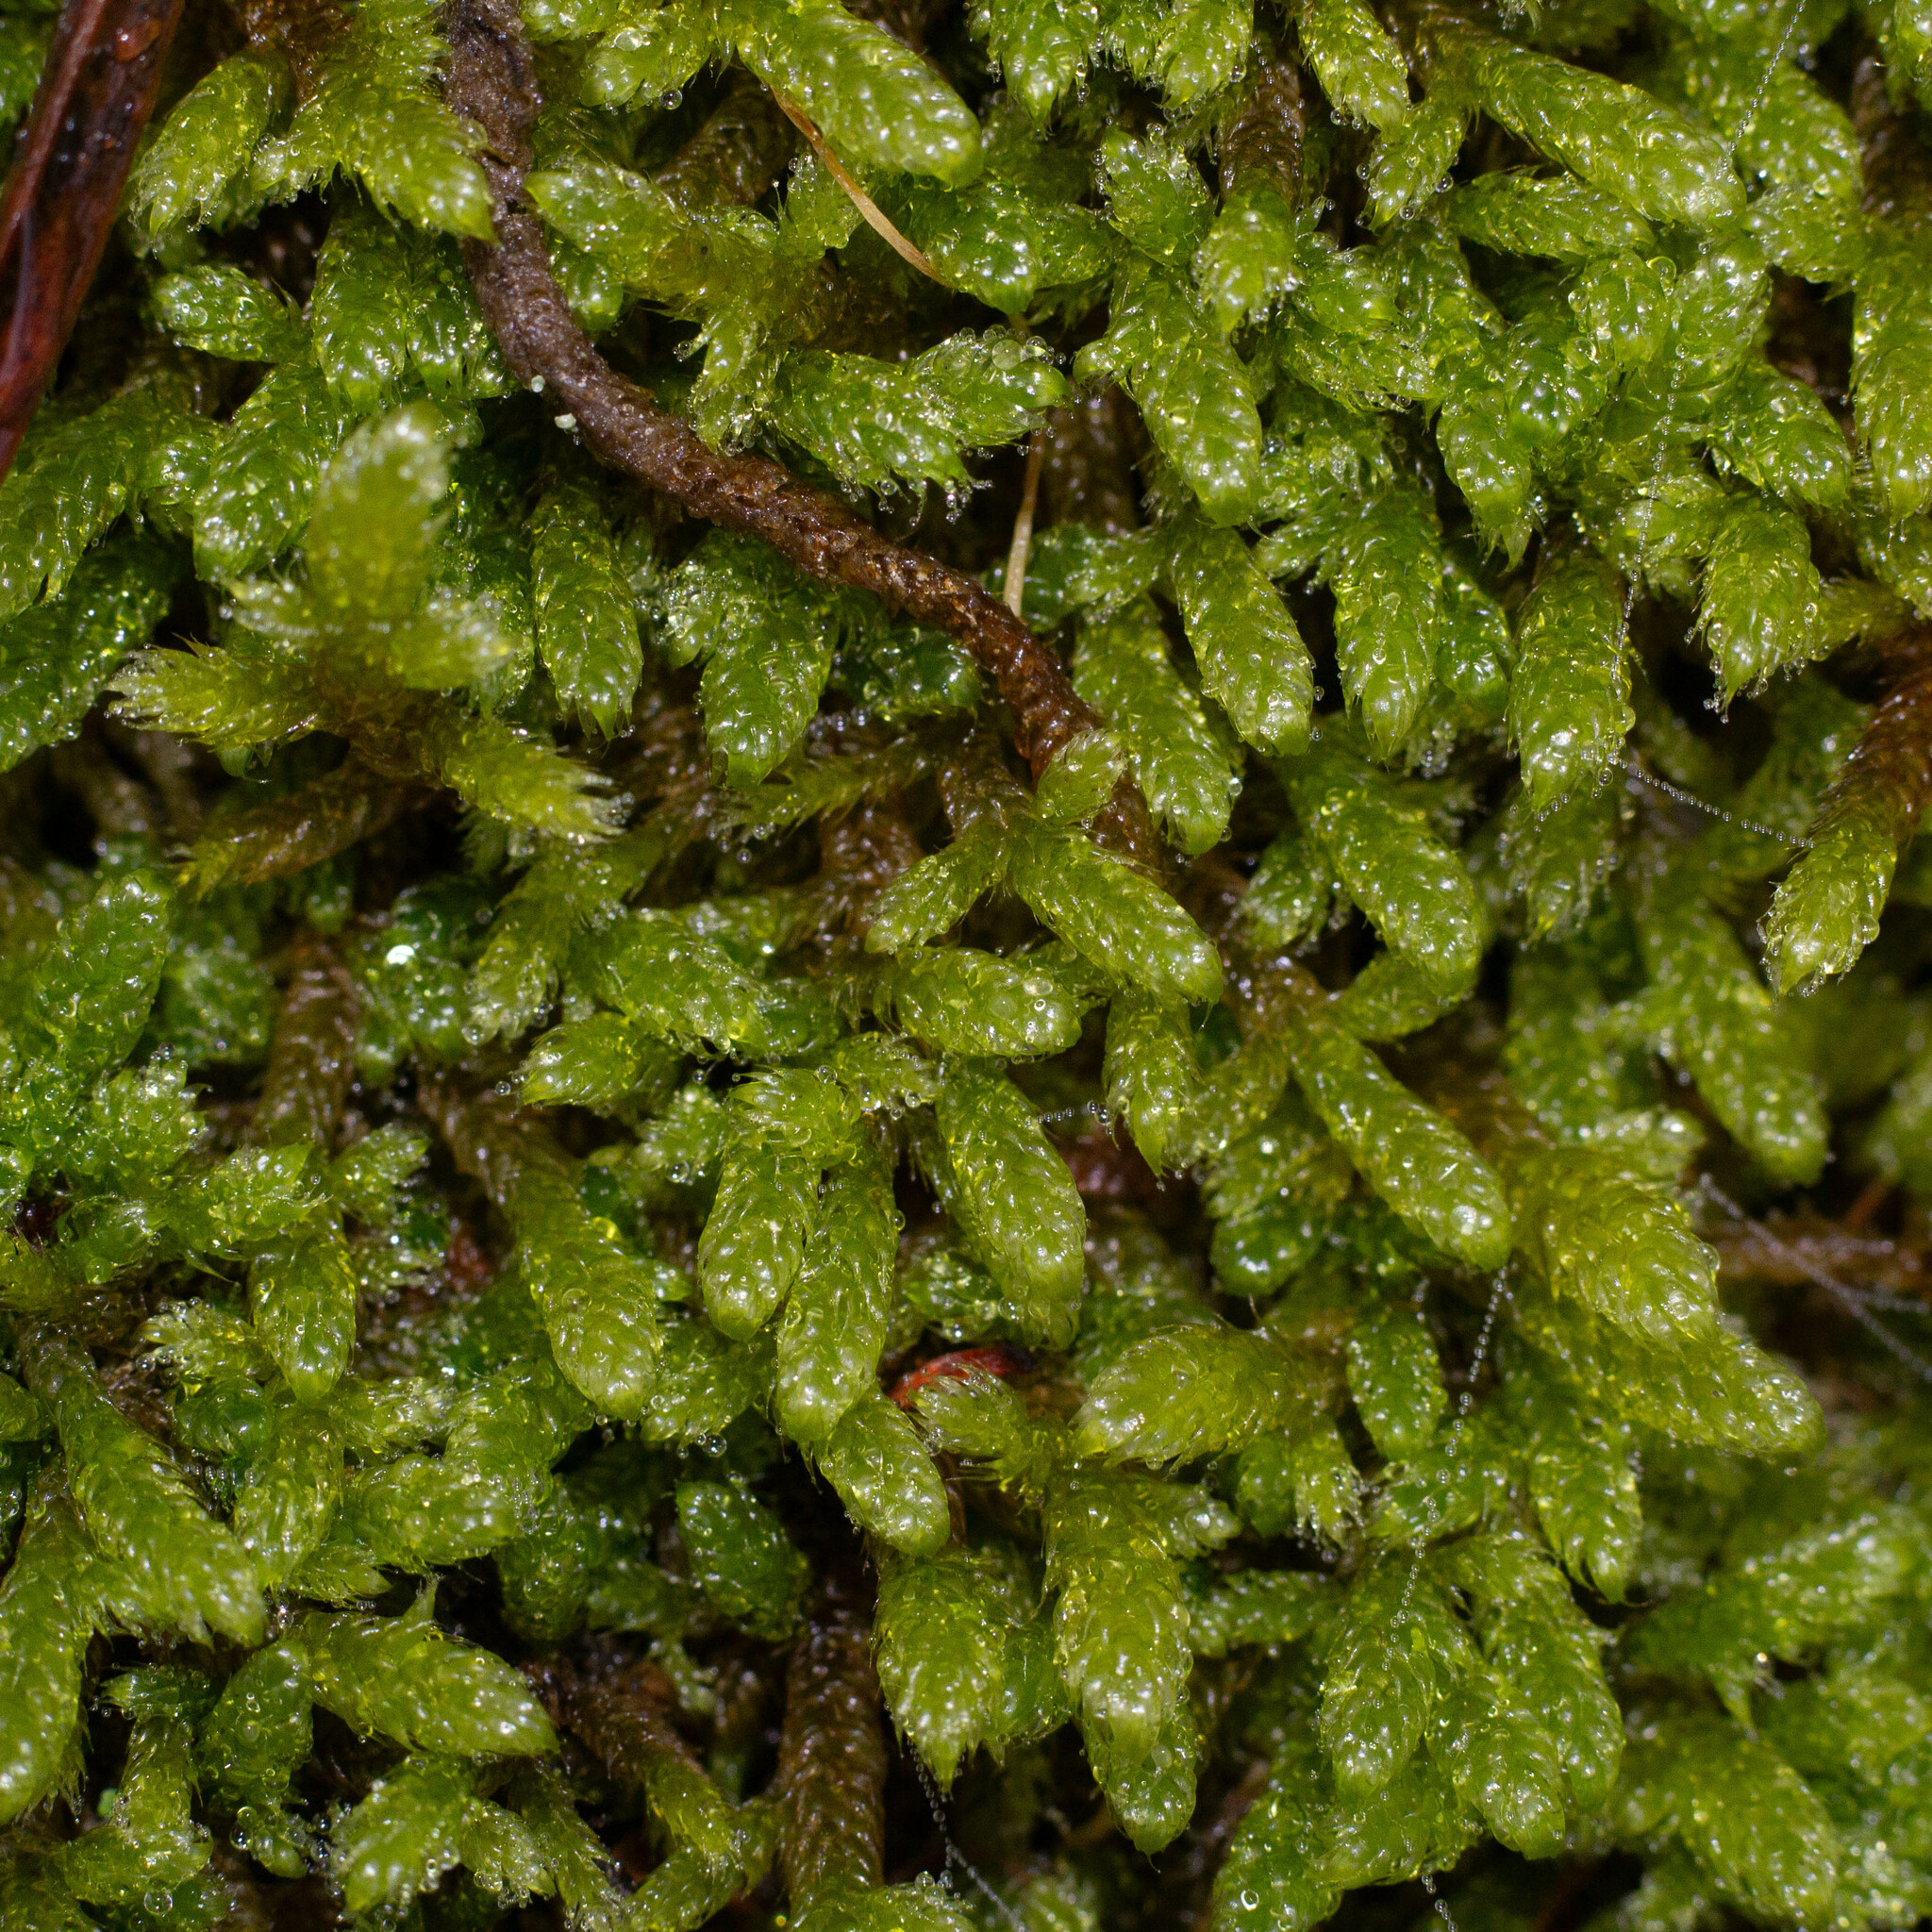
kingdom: Plantae
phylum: Bryophyta
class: Bryopsida
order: Hypnales
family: Hypnaceae
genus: Hypnum
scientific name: Hypnum cupressiforme
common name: Cypress-leaved plait-moss
